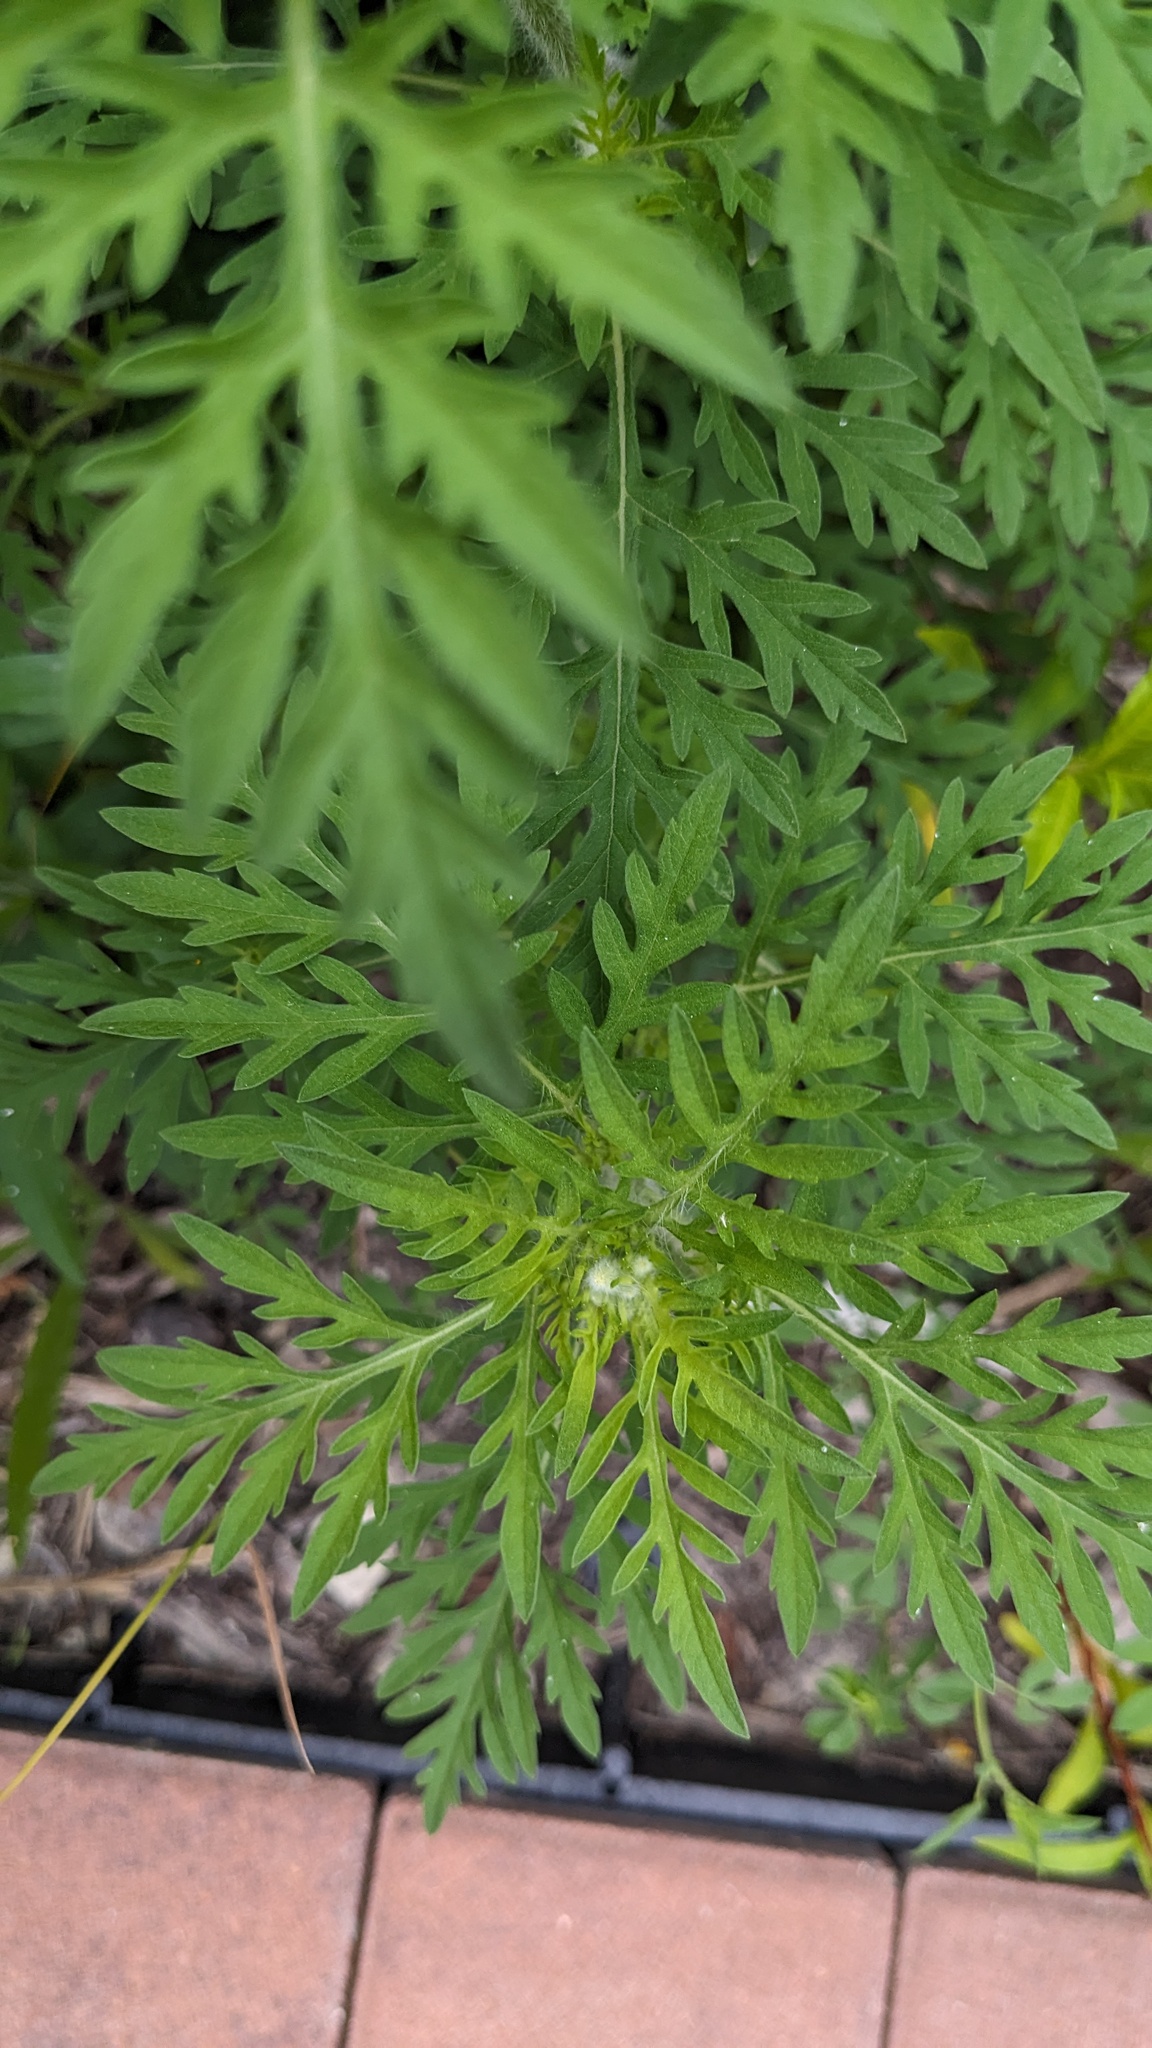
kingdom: Plantae
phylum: Tracheophyta
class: Magnoliopsida
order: Asterales
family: Asteraceae
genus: Ambrosia
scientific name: Ambrosia artemisiifolia
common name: Annual ragweed
